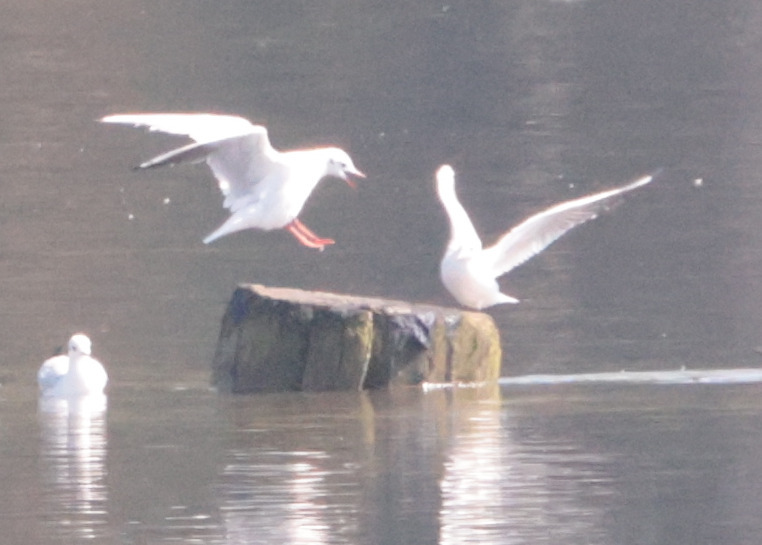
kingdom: Animalia
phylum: Chordata
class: Aves
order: Charadriiformes
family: Laridae
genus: Chroicocephalus
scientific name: Chroicocephalus ridibundus
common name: Black-headed gull
